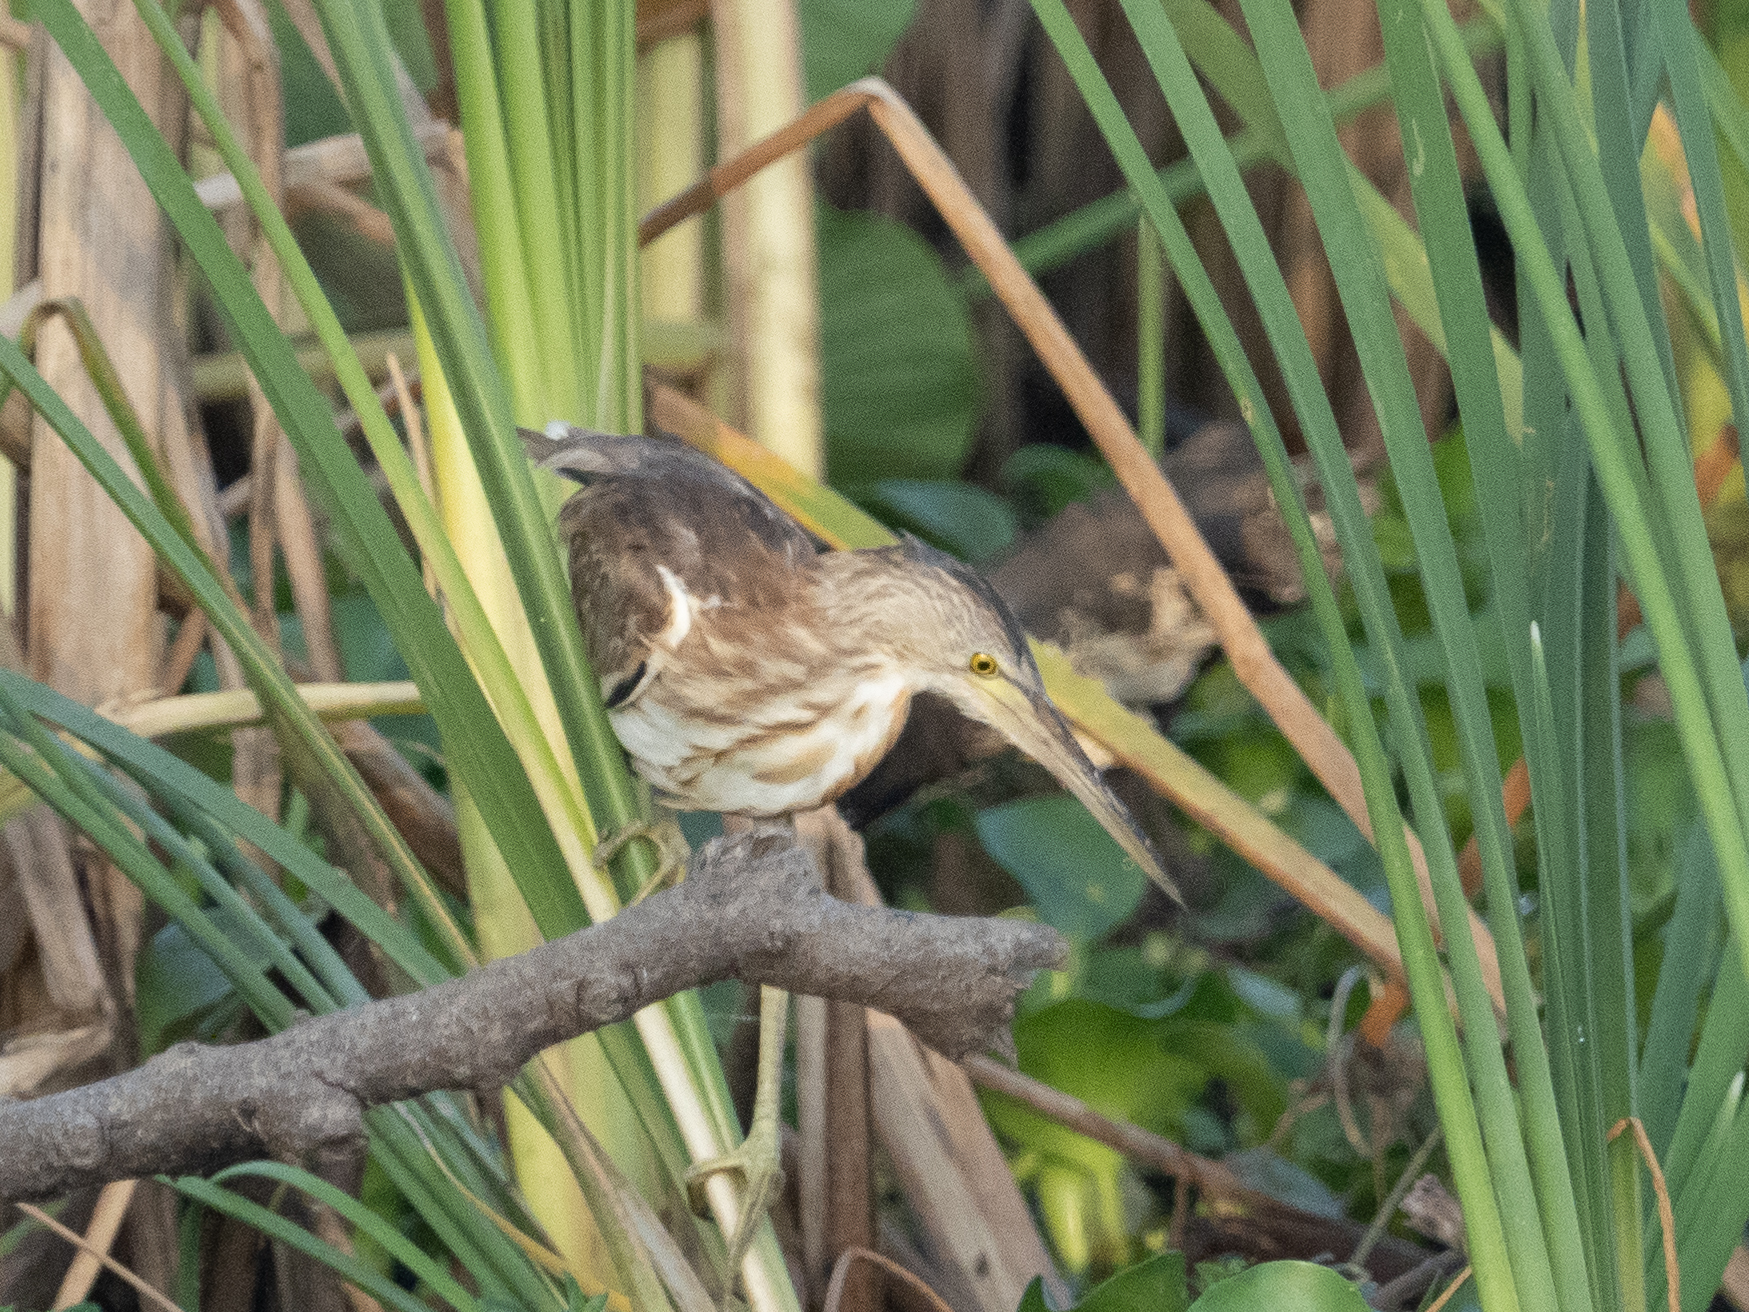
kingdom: Animalia
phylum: Chordata
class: Aves
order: Pelecaniformes
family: Ardeidae
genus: Ixobrychus
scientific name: Ixobrychus sinensis
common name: Yellow bittern
